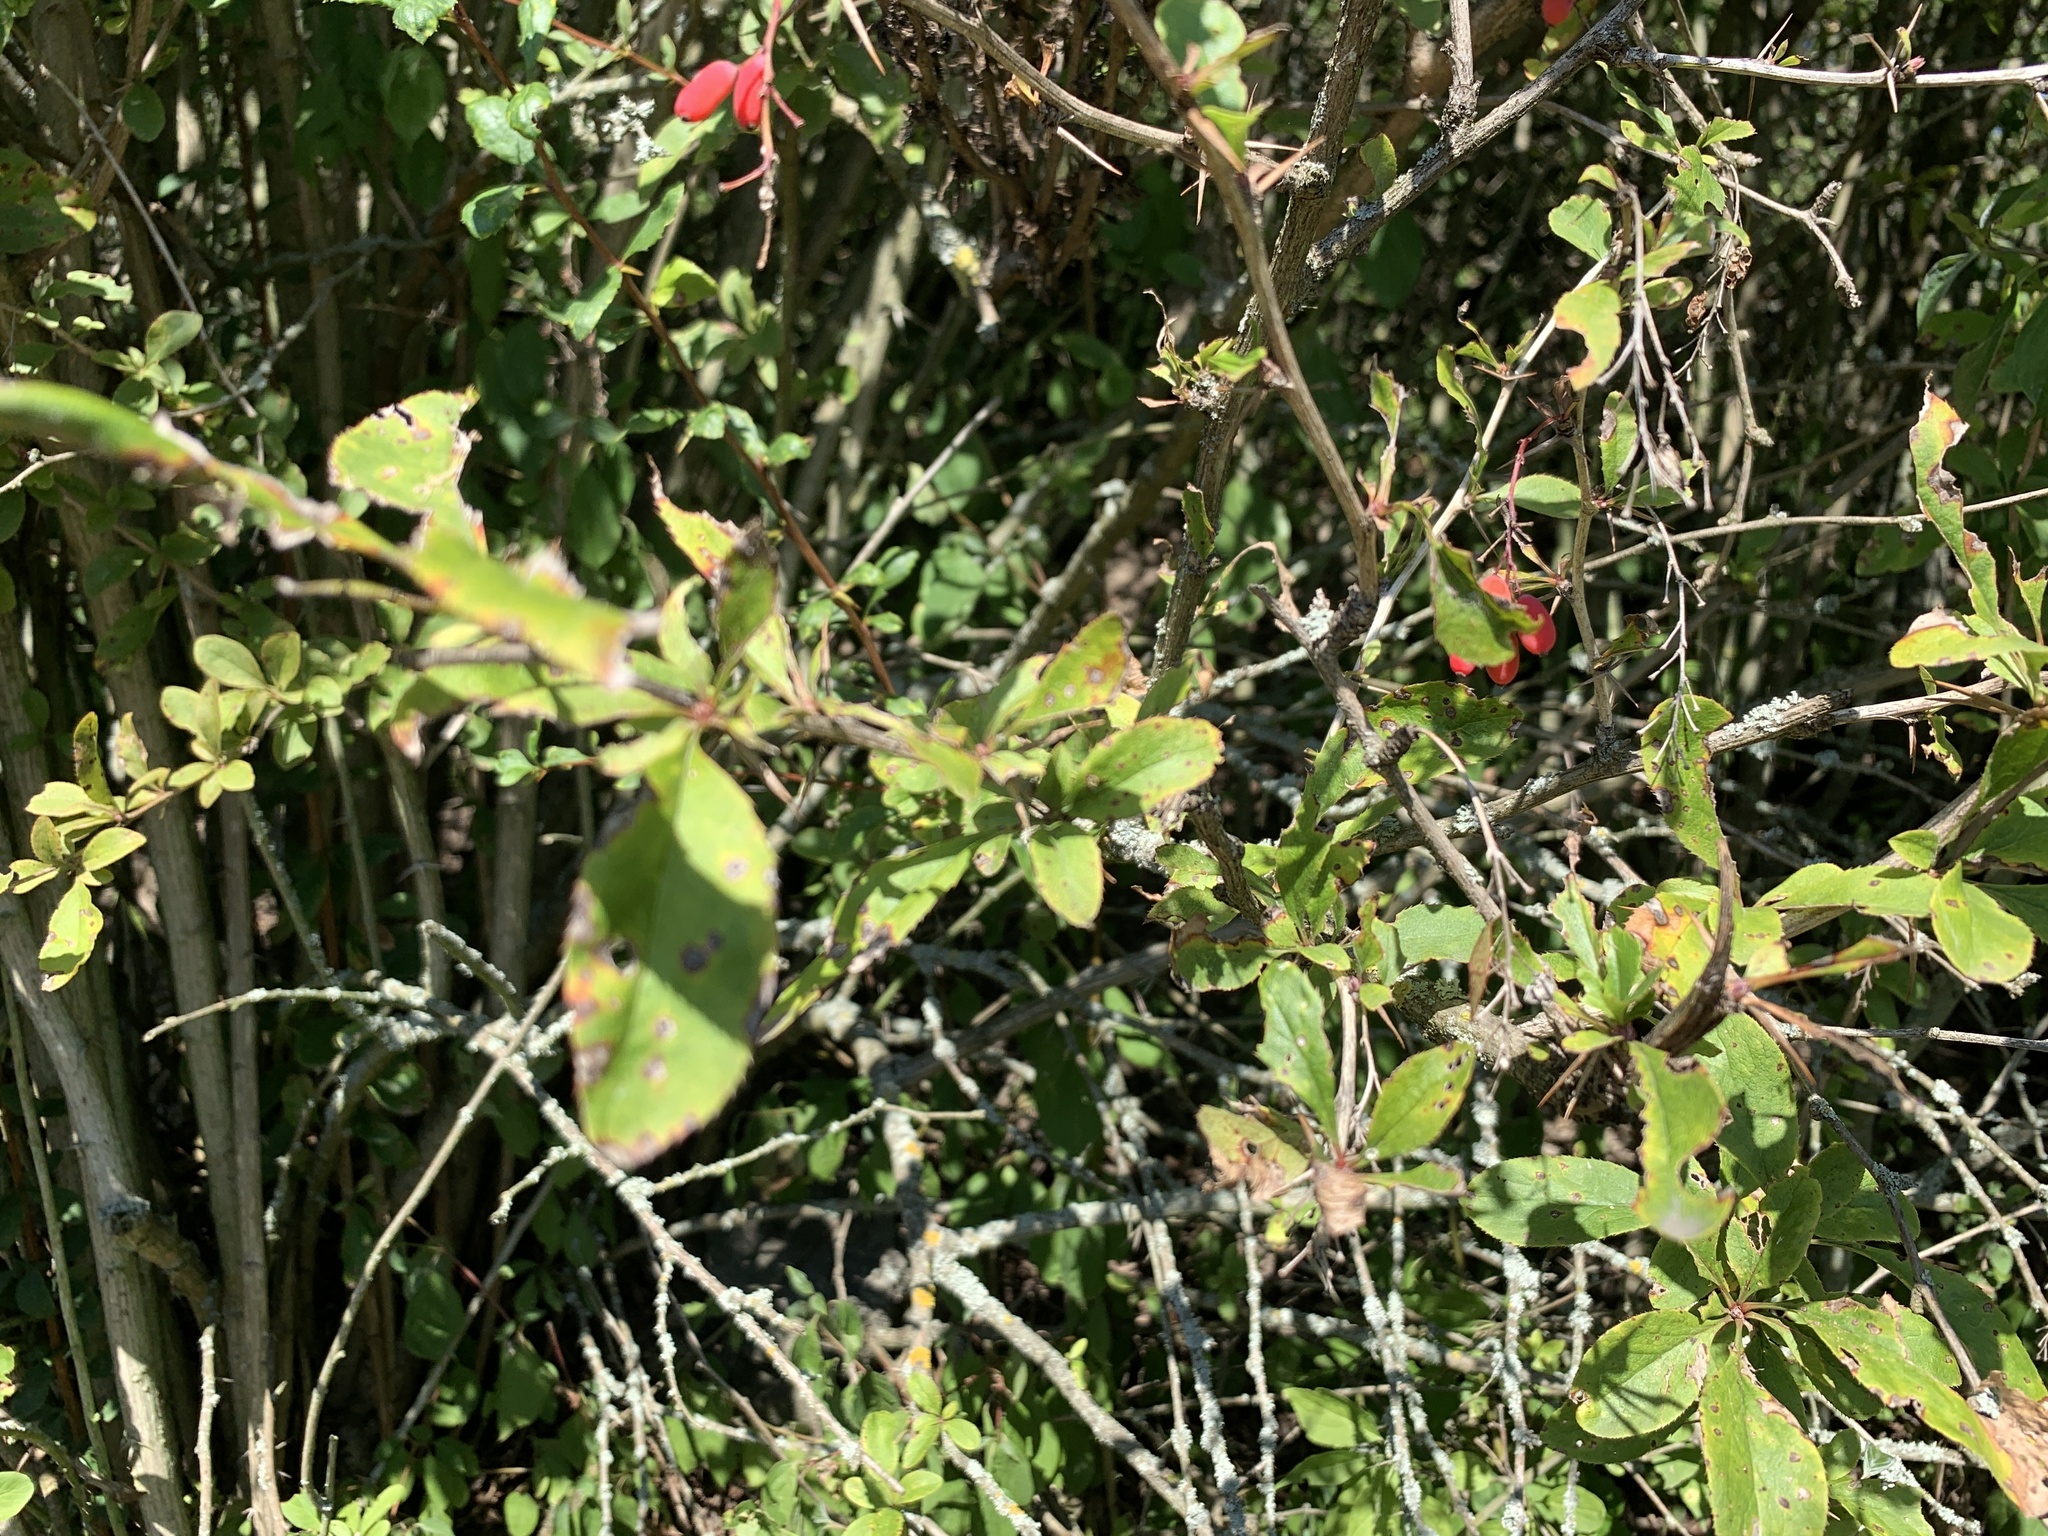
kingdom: Plantae
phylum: Tracheophyta
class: Magnoliopsida
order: Ranunculales
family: Berberidaceae
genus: Berberis
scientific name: Berberis vulgaris
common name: Barberry
